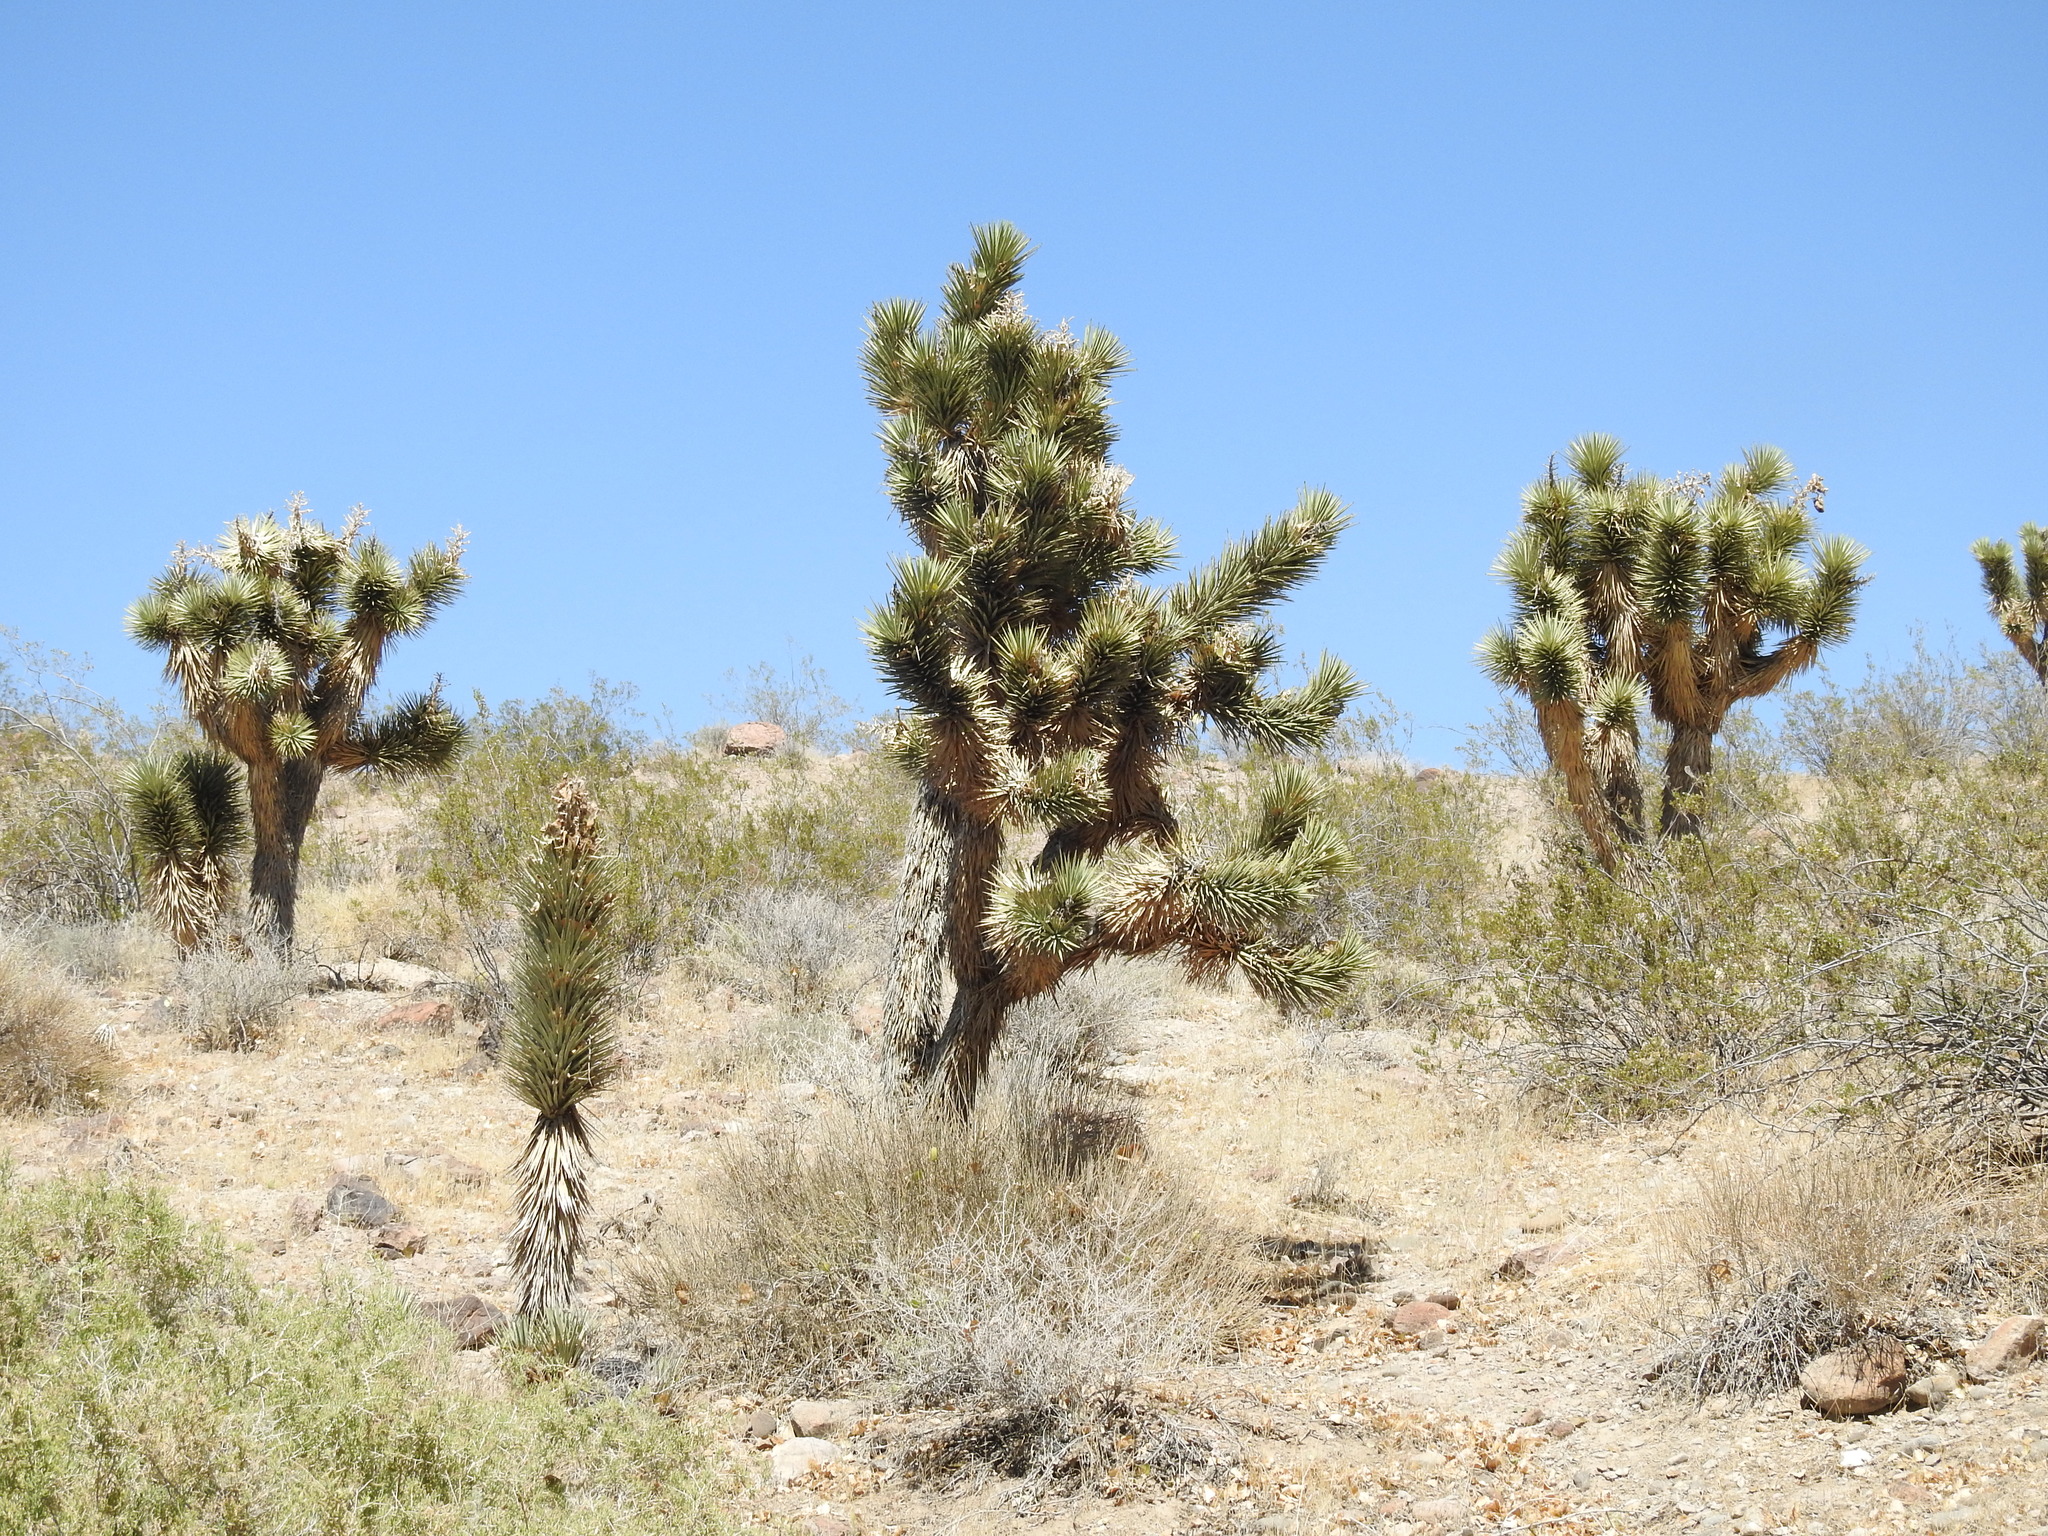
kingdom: Plantae
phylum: Tracheophyta
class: Liliopsida
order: Asparagales
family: Asparagaceae
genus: Yucca
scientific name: Yucca brevifolia
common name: Joshua tree
